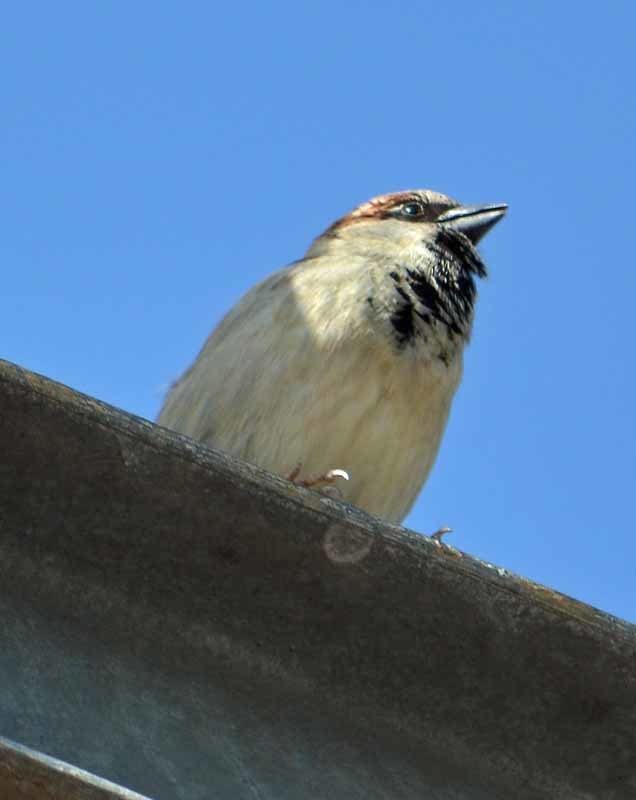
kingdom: Animalia
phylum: Chordata
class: Aves
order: Passeriformes
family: Passeridae
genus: Passer
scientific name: Passer domesticus
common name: House sparrow
